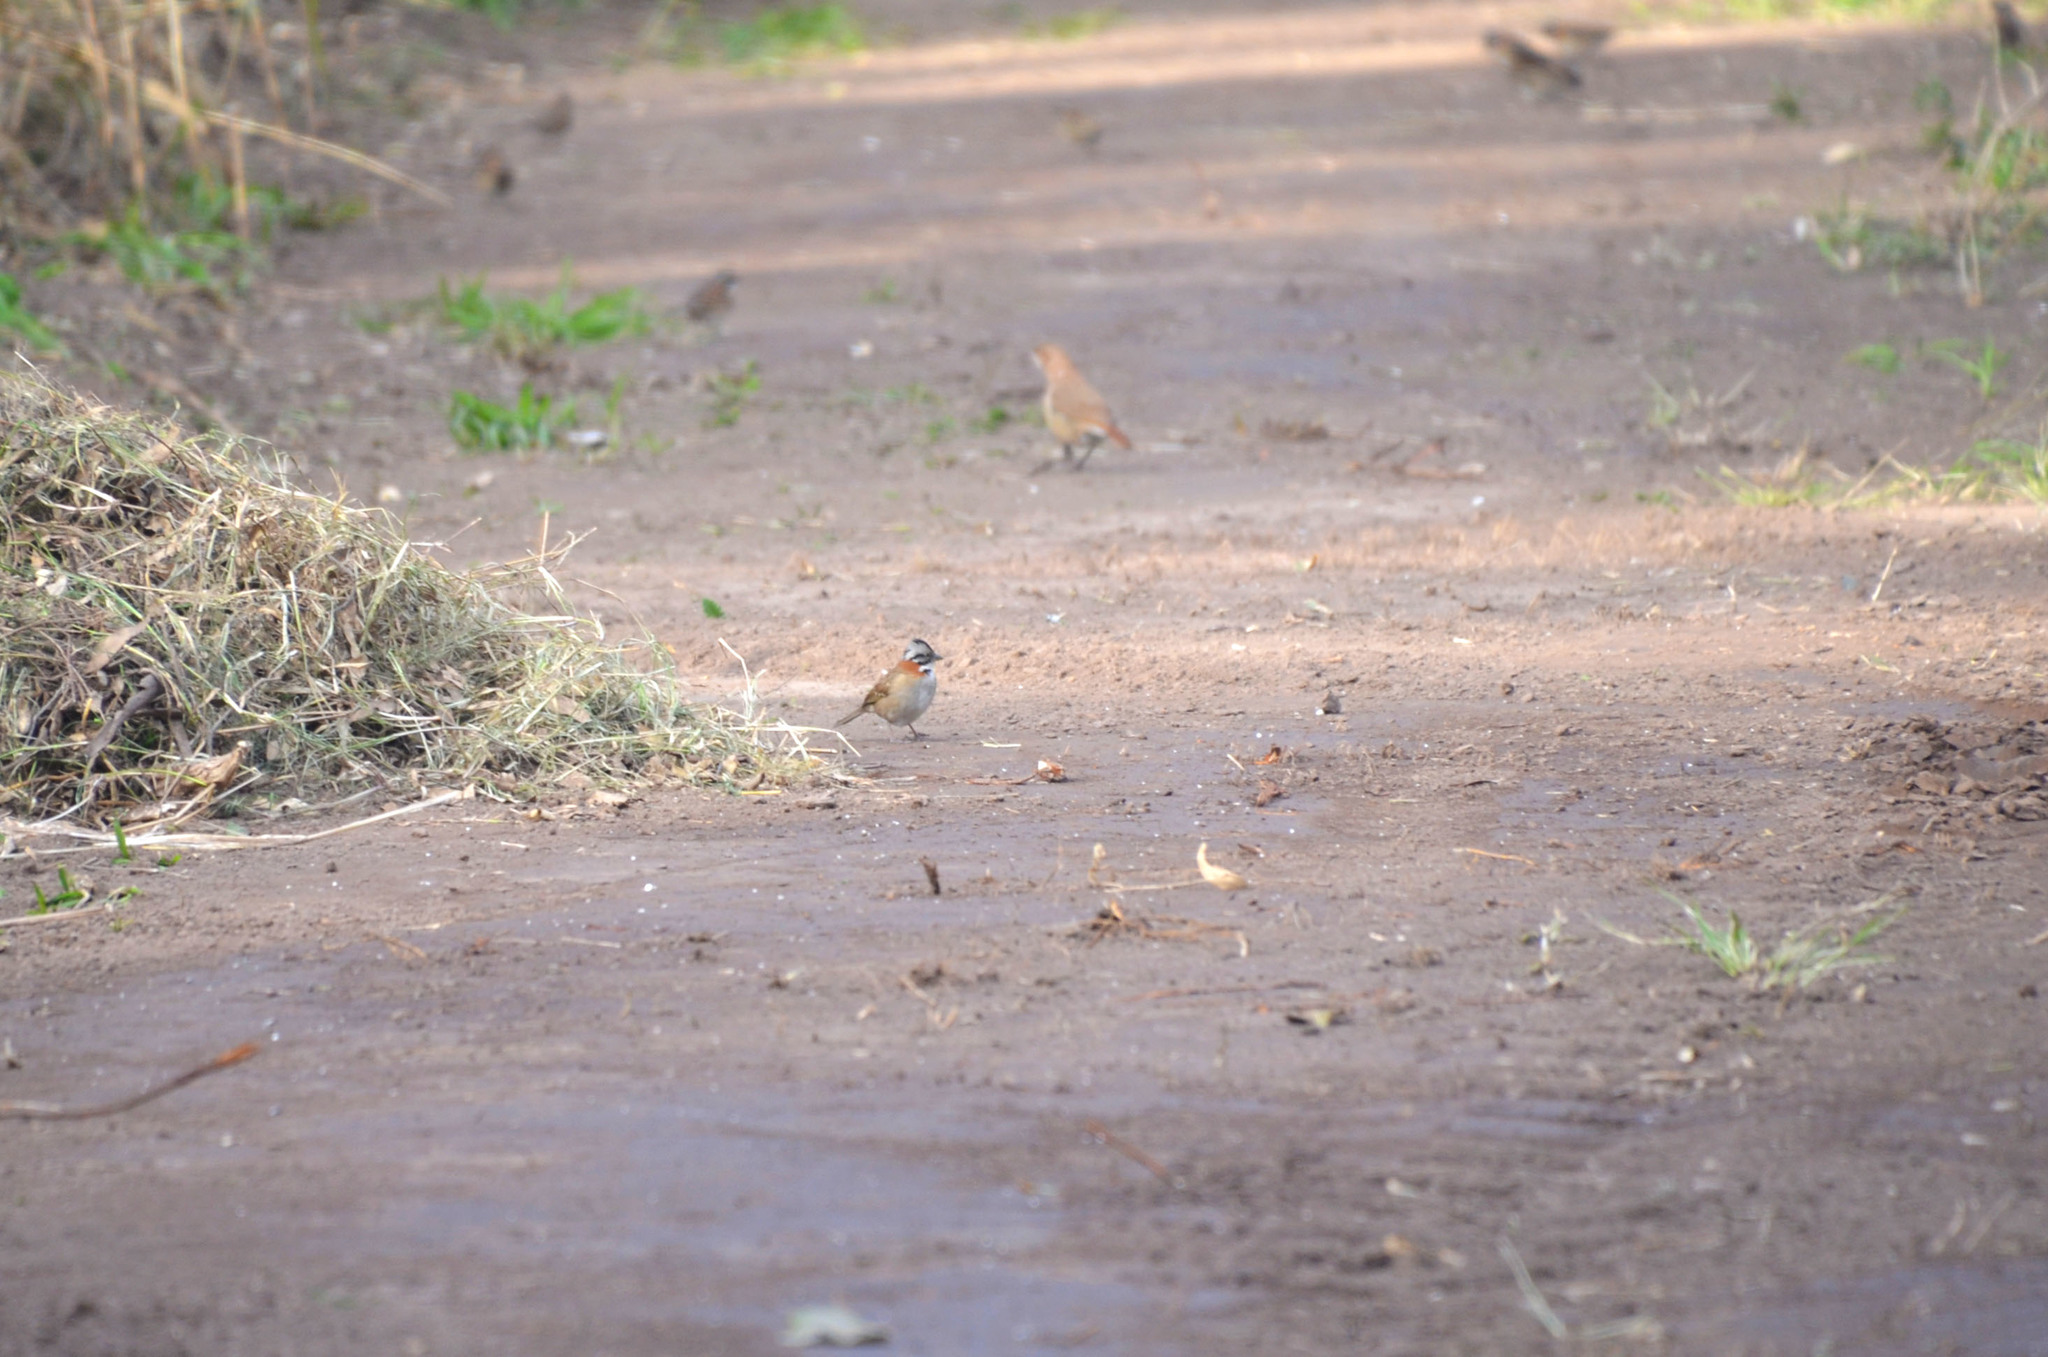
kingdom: Animalia
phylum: Chordata
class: Aves
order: Passeriformes
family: Passerellidae
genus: Zonotrichia
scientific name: Zonotrichia capensis
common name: Rufous-collared sparrow
